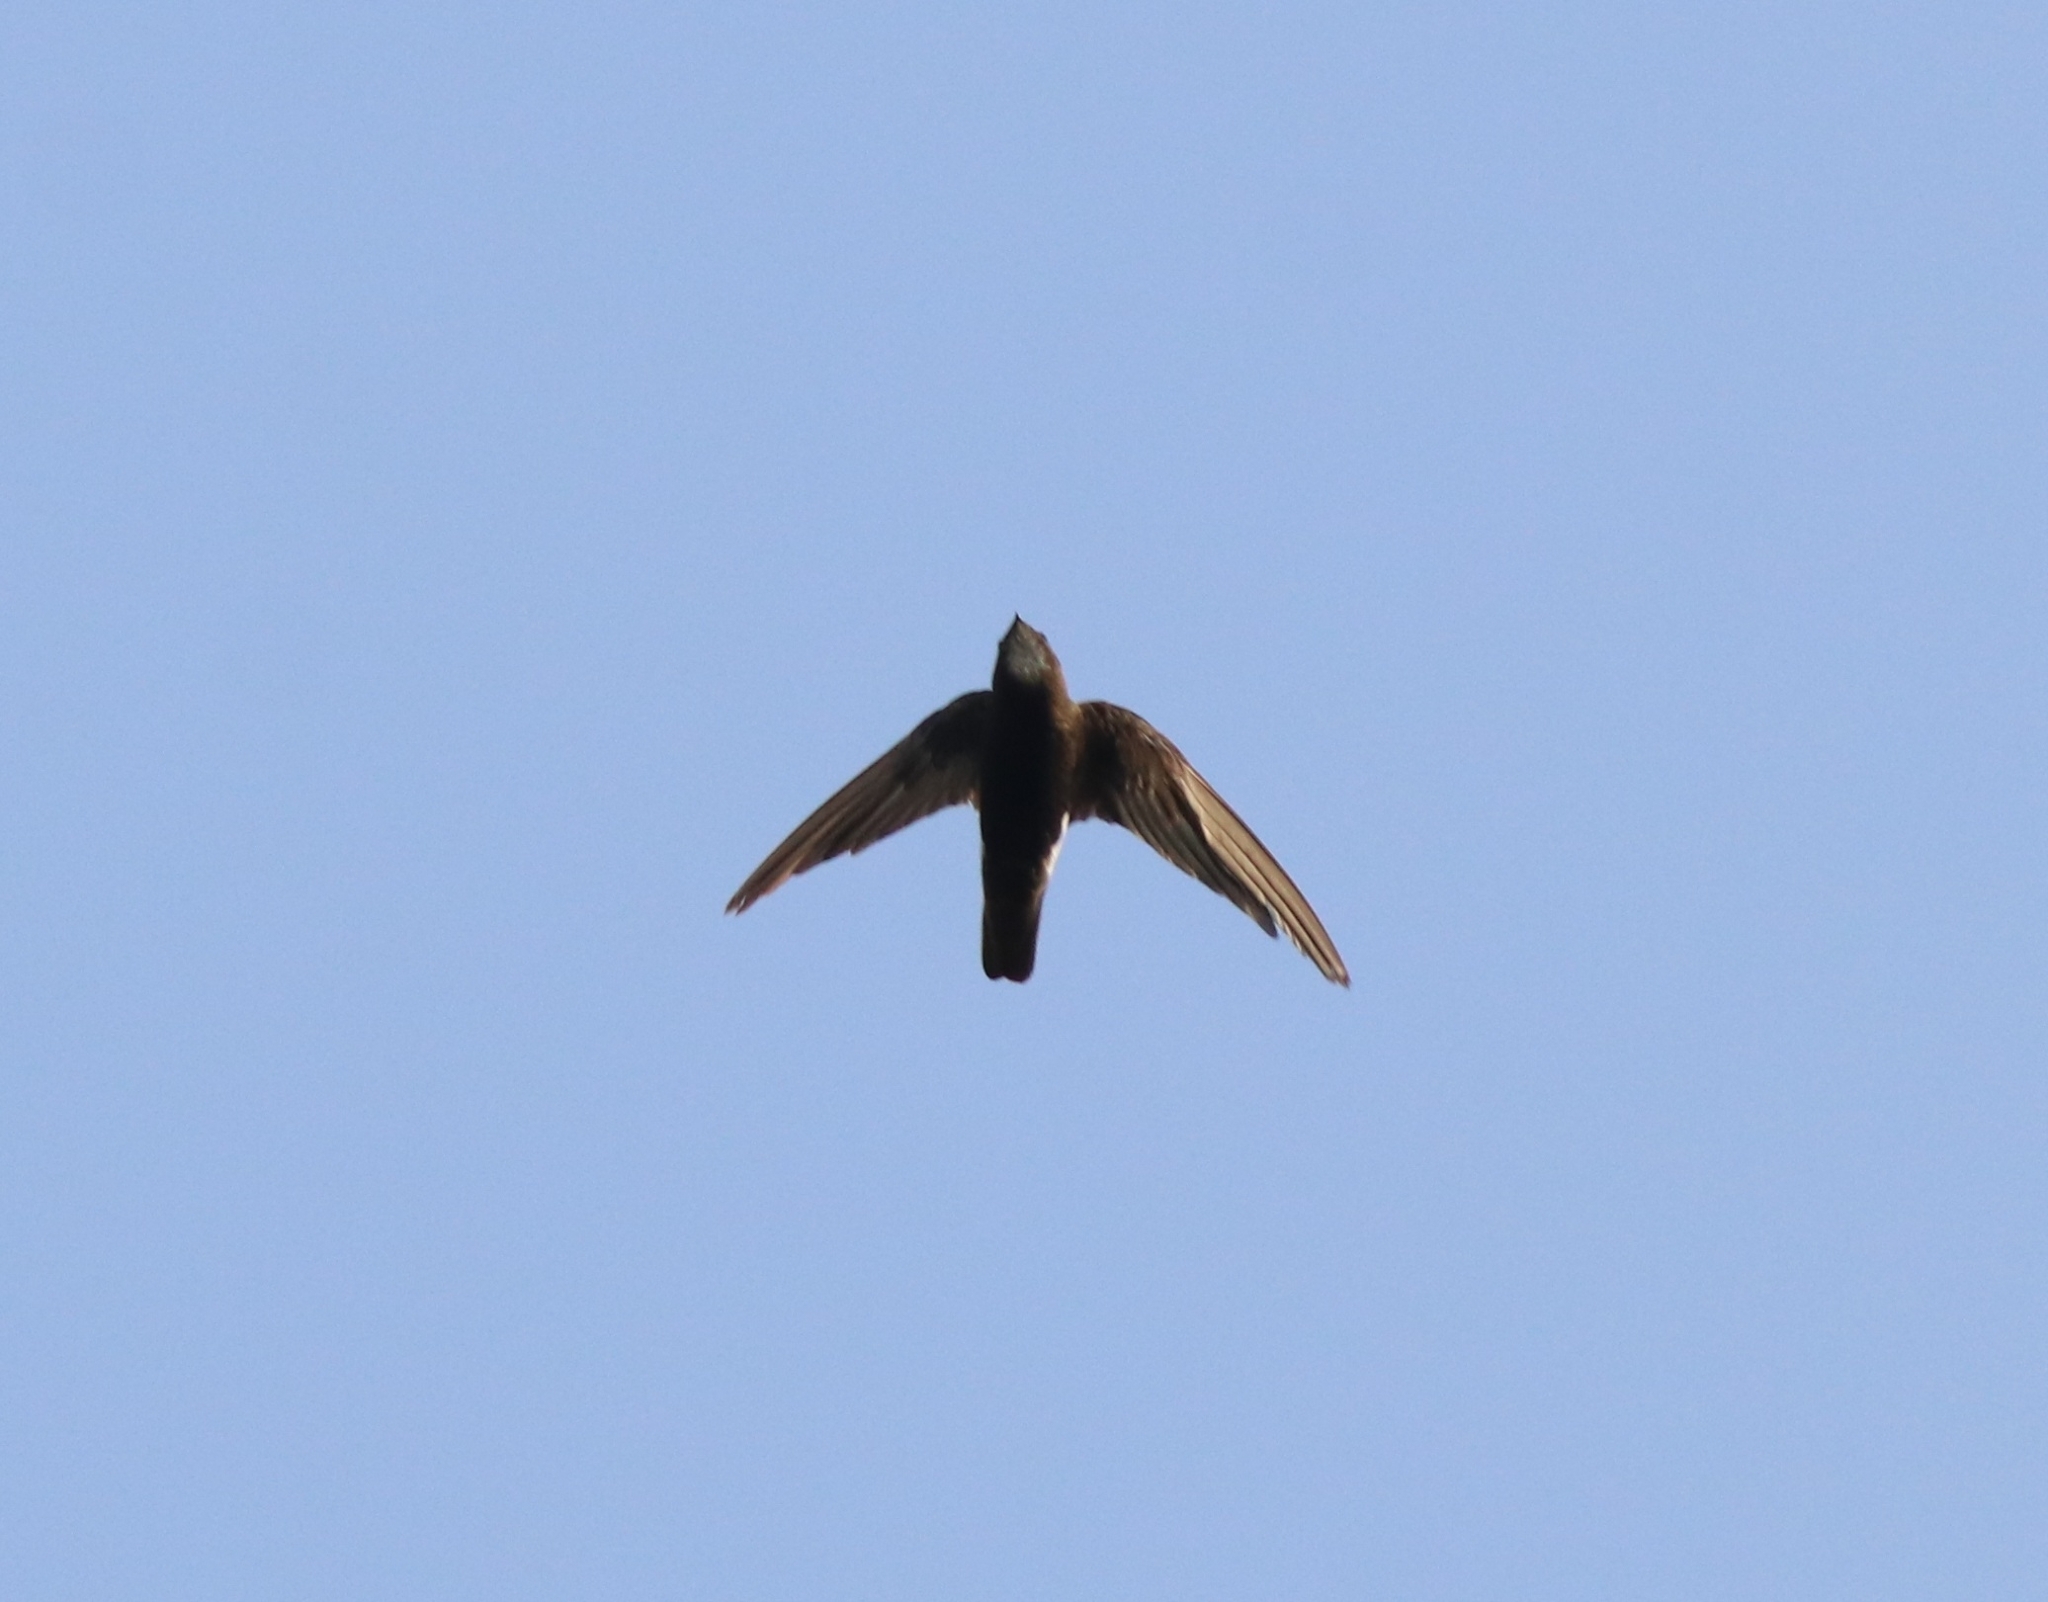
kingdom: Animalia
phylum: Chordata
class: Aves
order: Apodiformes
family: Apodidae
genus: Apus
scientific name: Apus affinis
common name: Little swift
